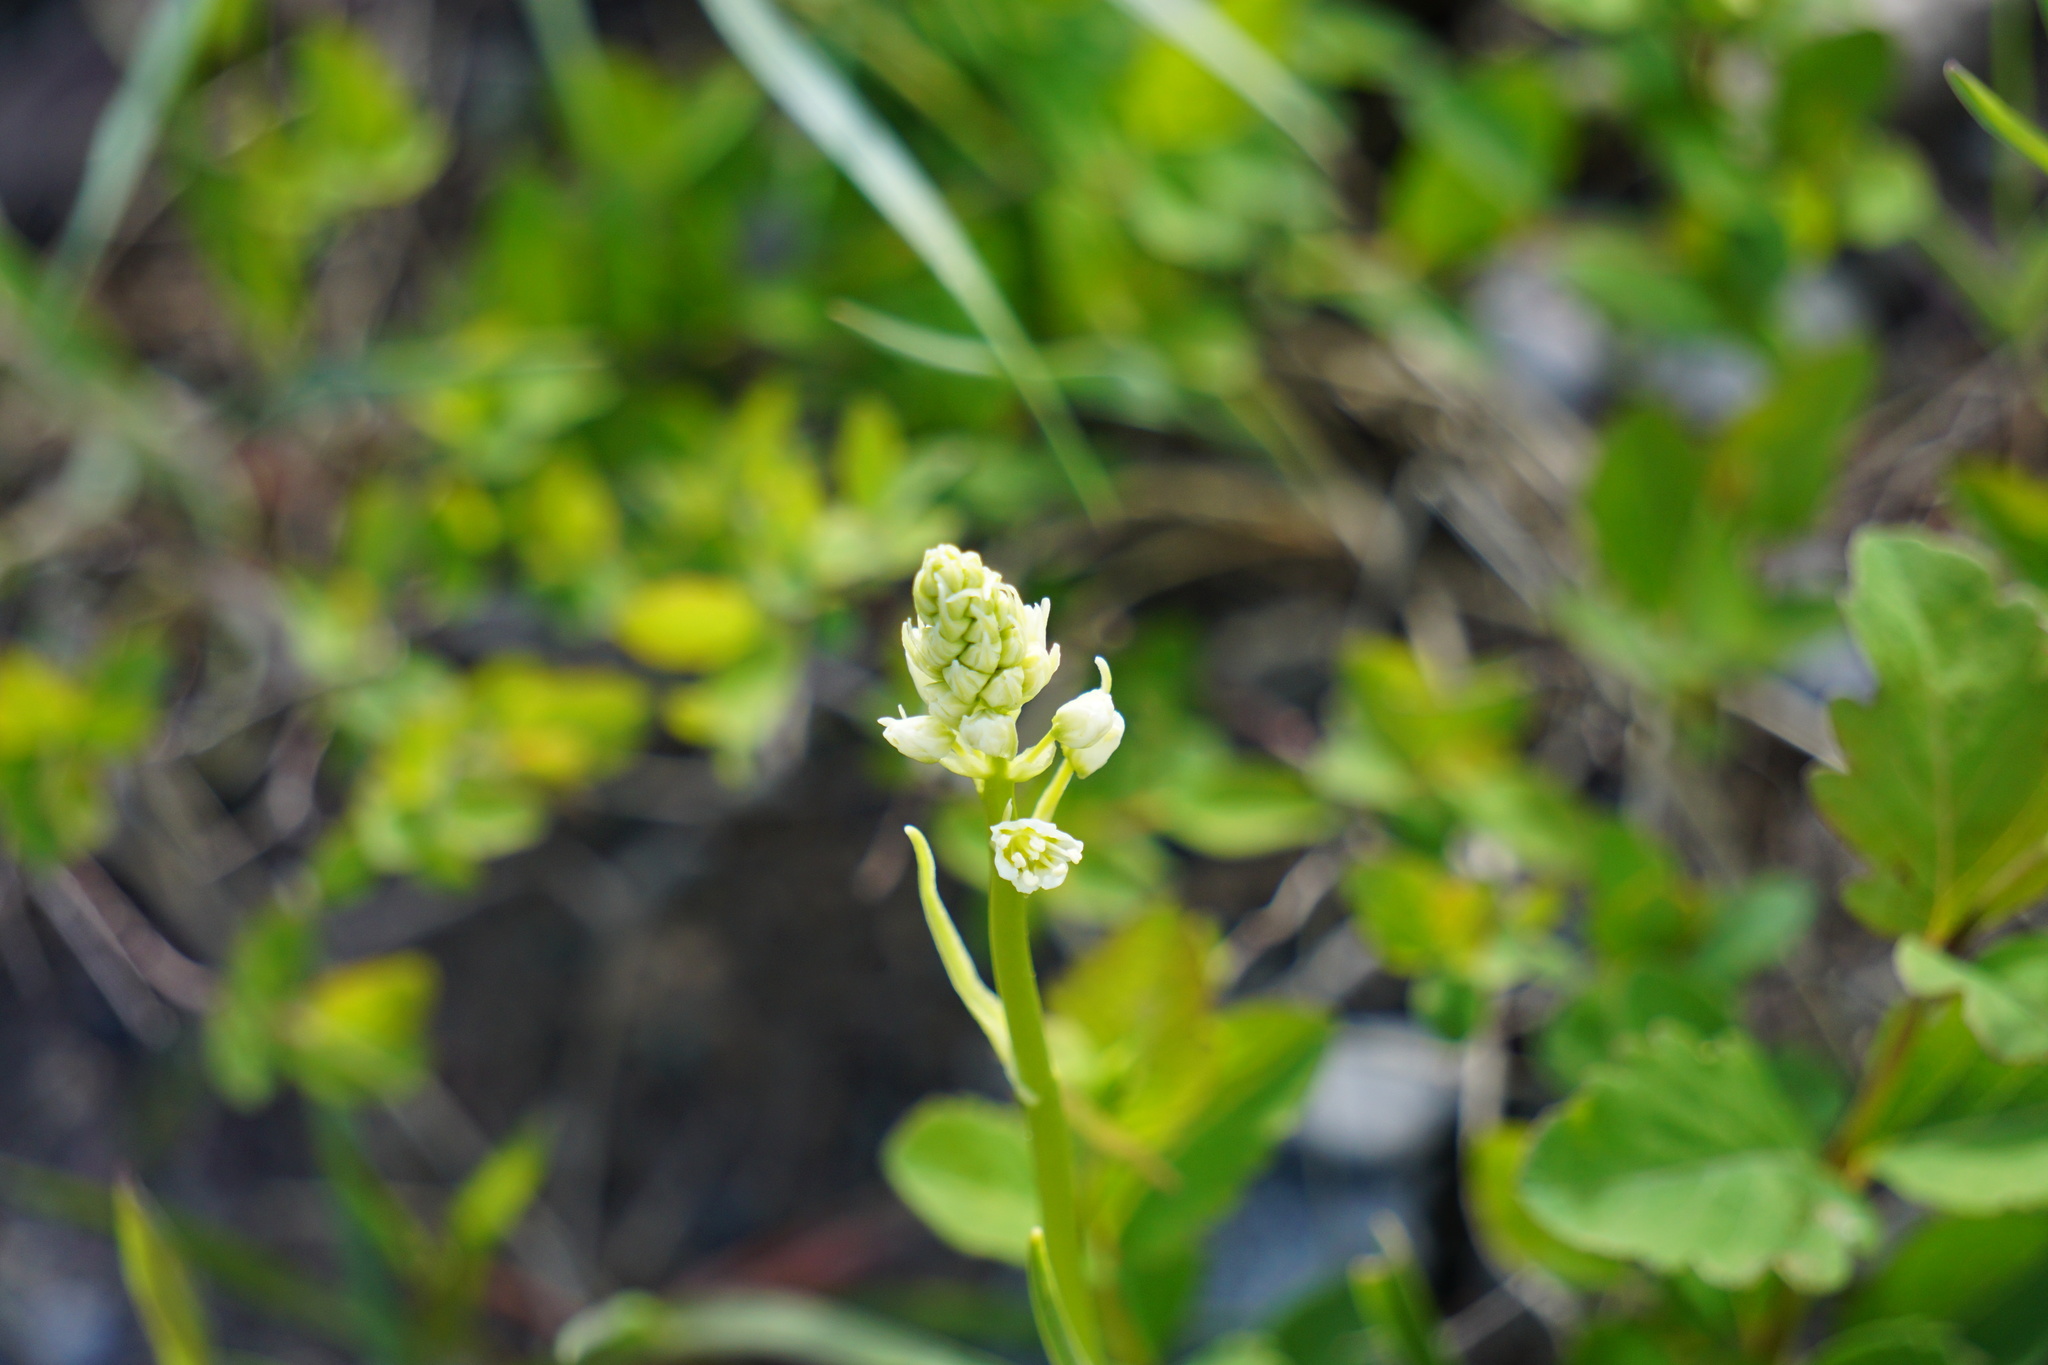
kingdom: Plantae
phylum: Tracheophyta
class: Liliopsida
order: Liliales
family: Melanthiaceae
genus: Toxicoscordion
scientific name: Toxicoscordion venenosum
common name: Meadow death camas
